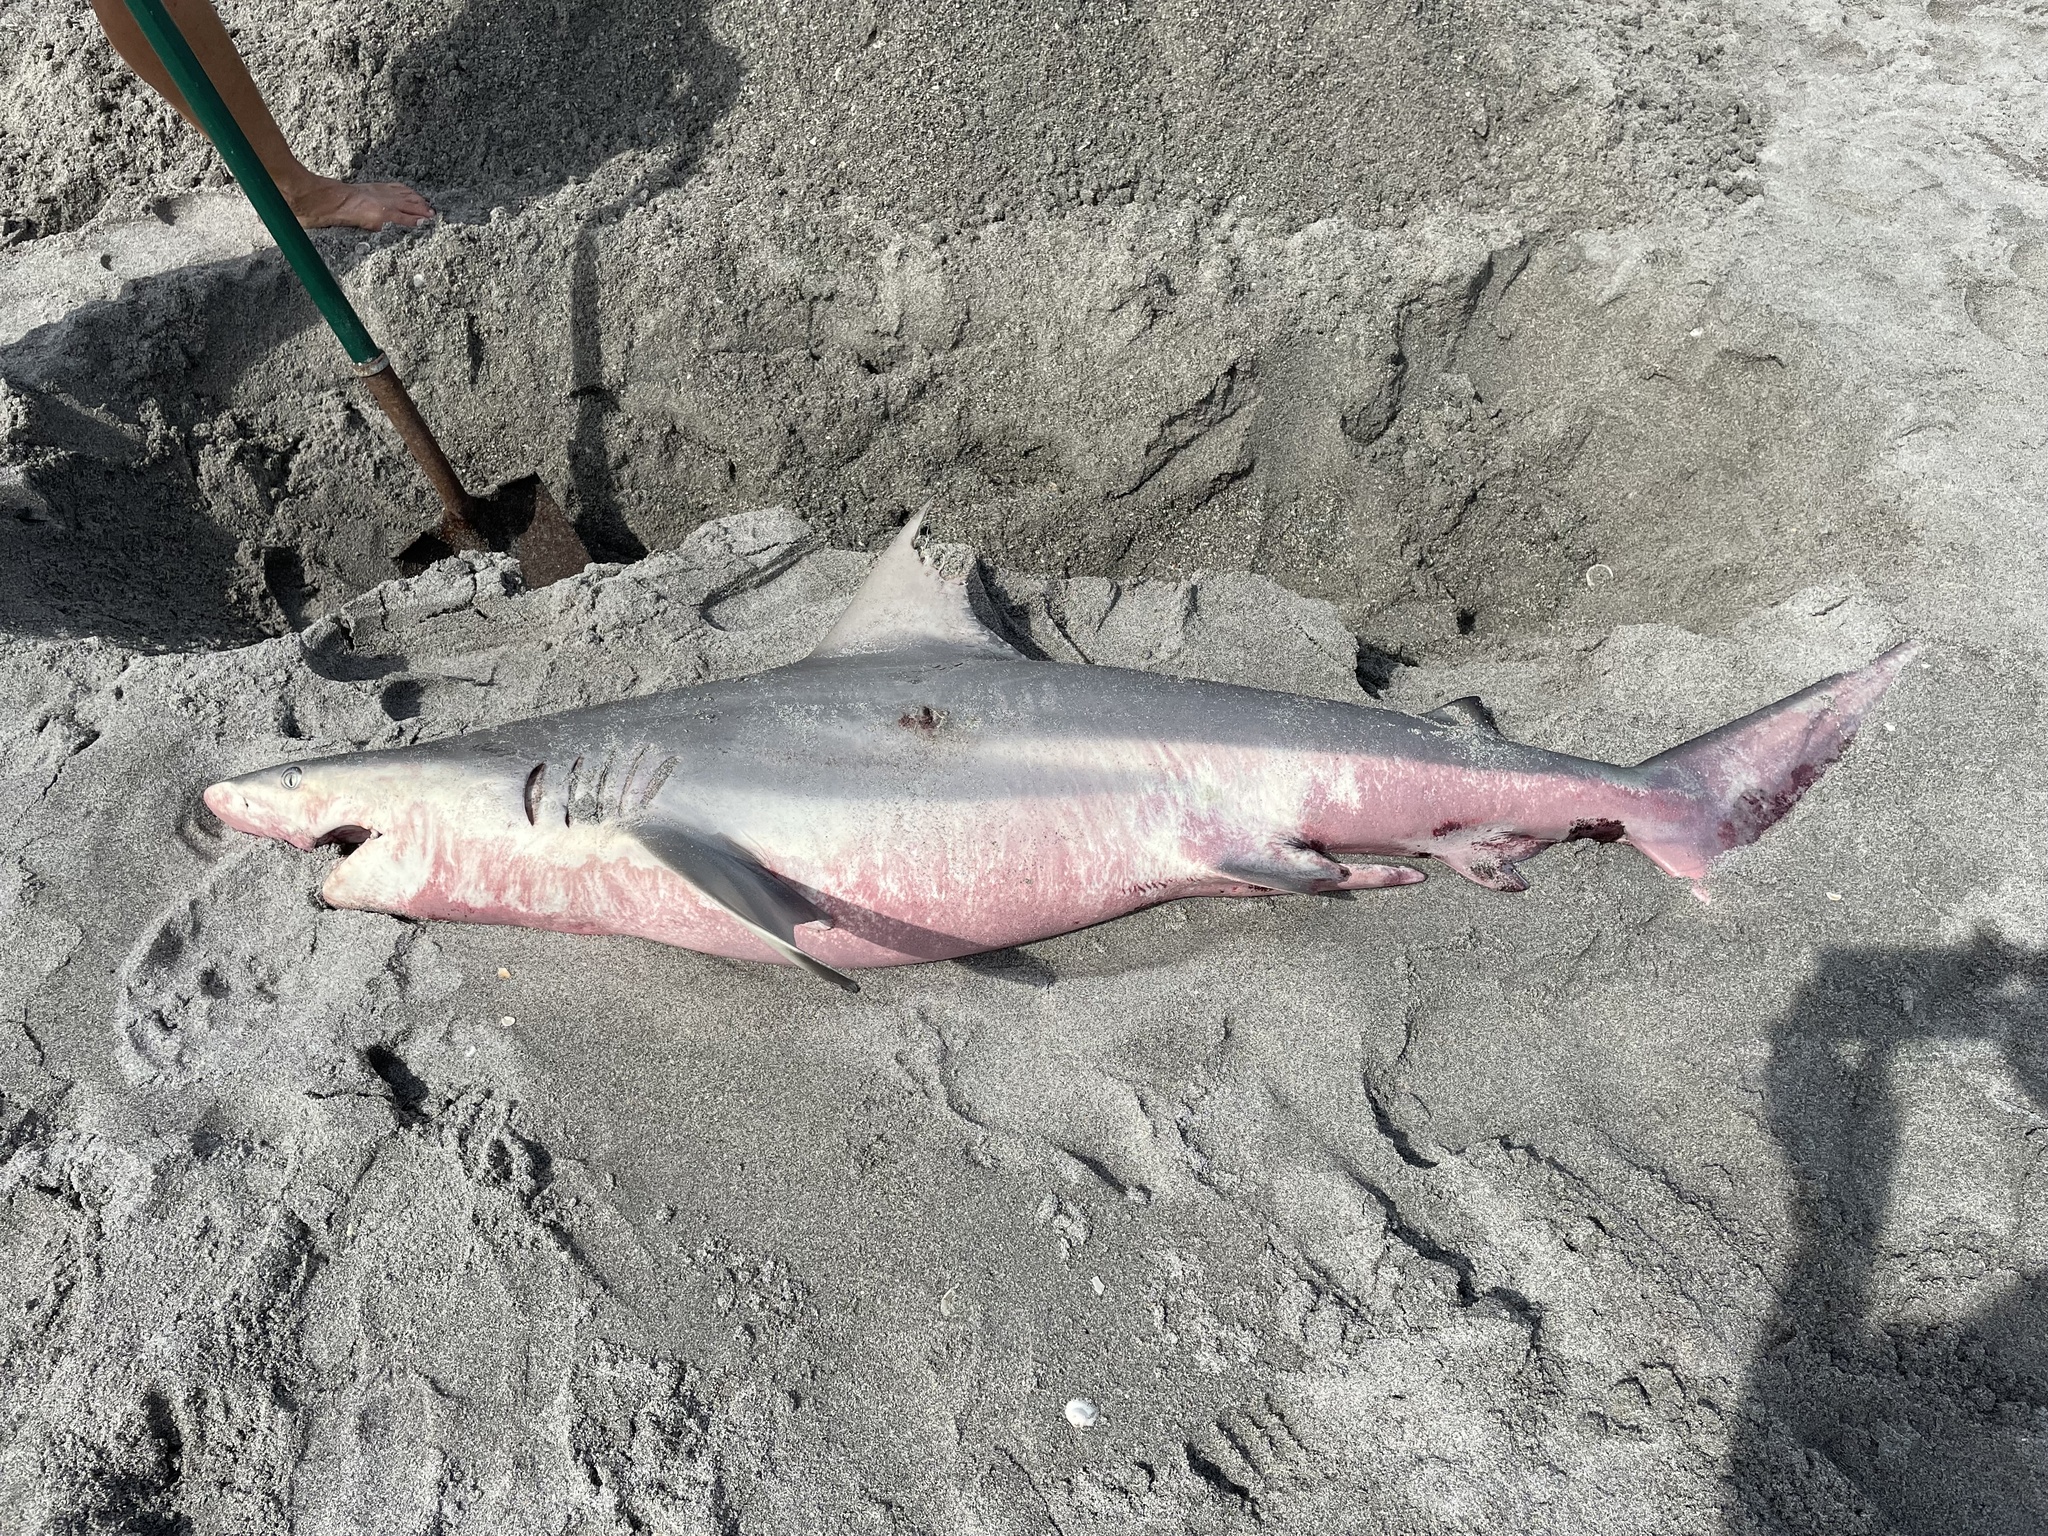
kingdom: Animalia
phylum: Chordata
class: Elasmobranchii
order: Carcharhiniformes
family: Carcharhinidae
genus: Carcharhinus
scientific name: Carcharhinus limbatus
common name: Blacktip shark
